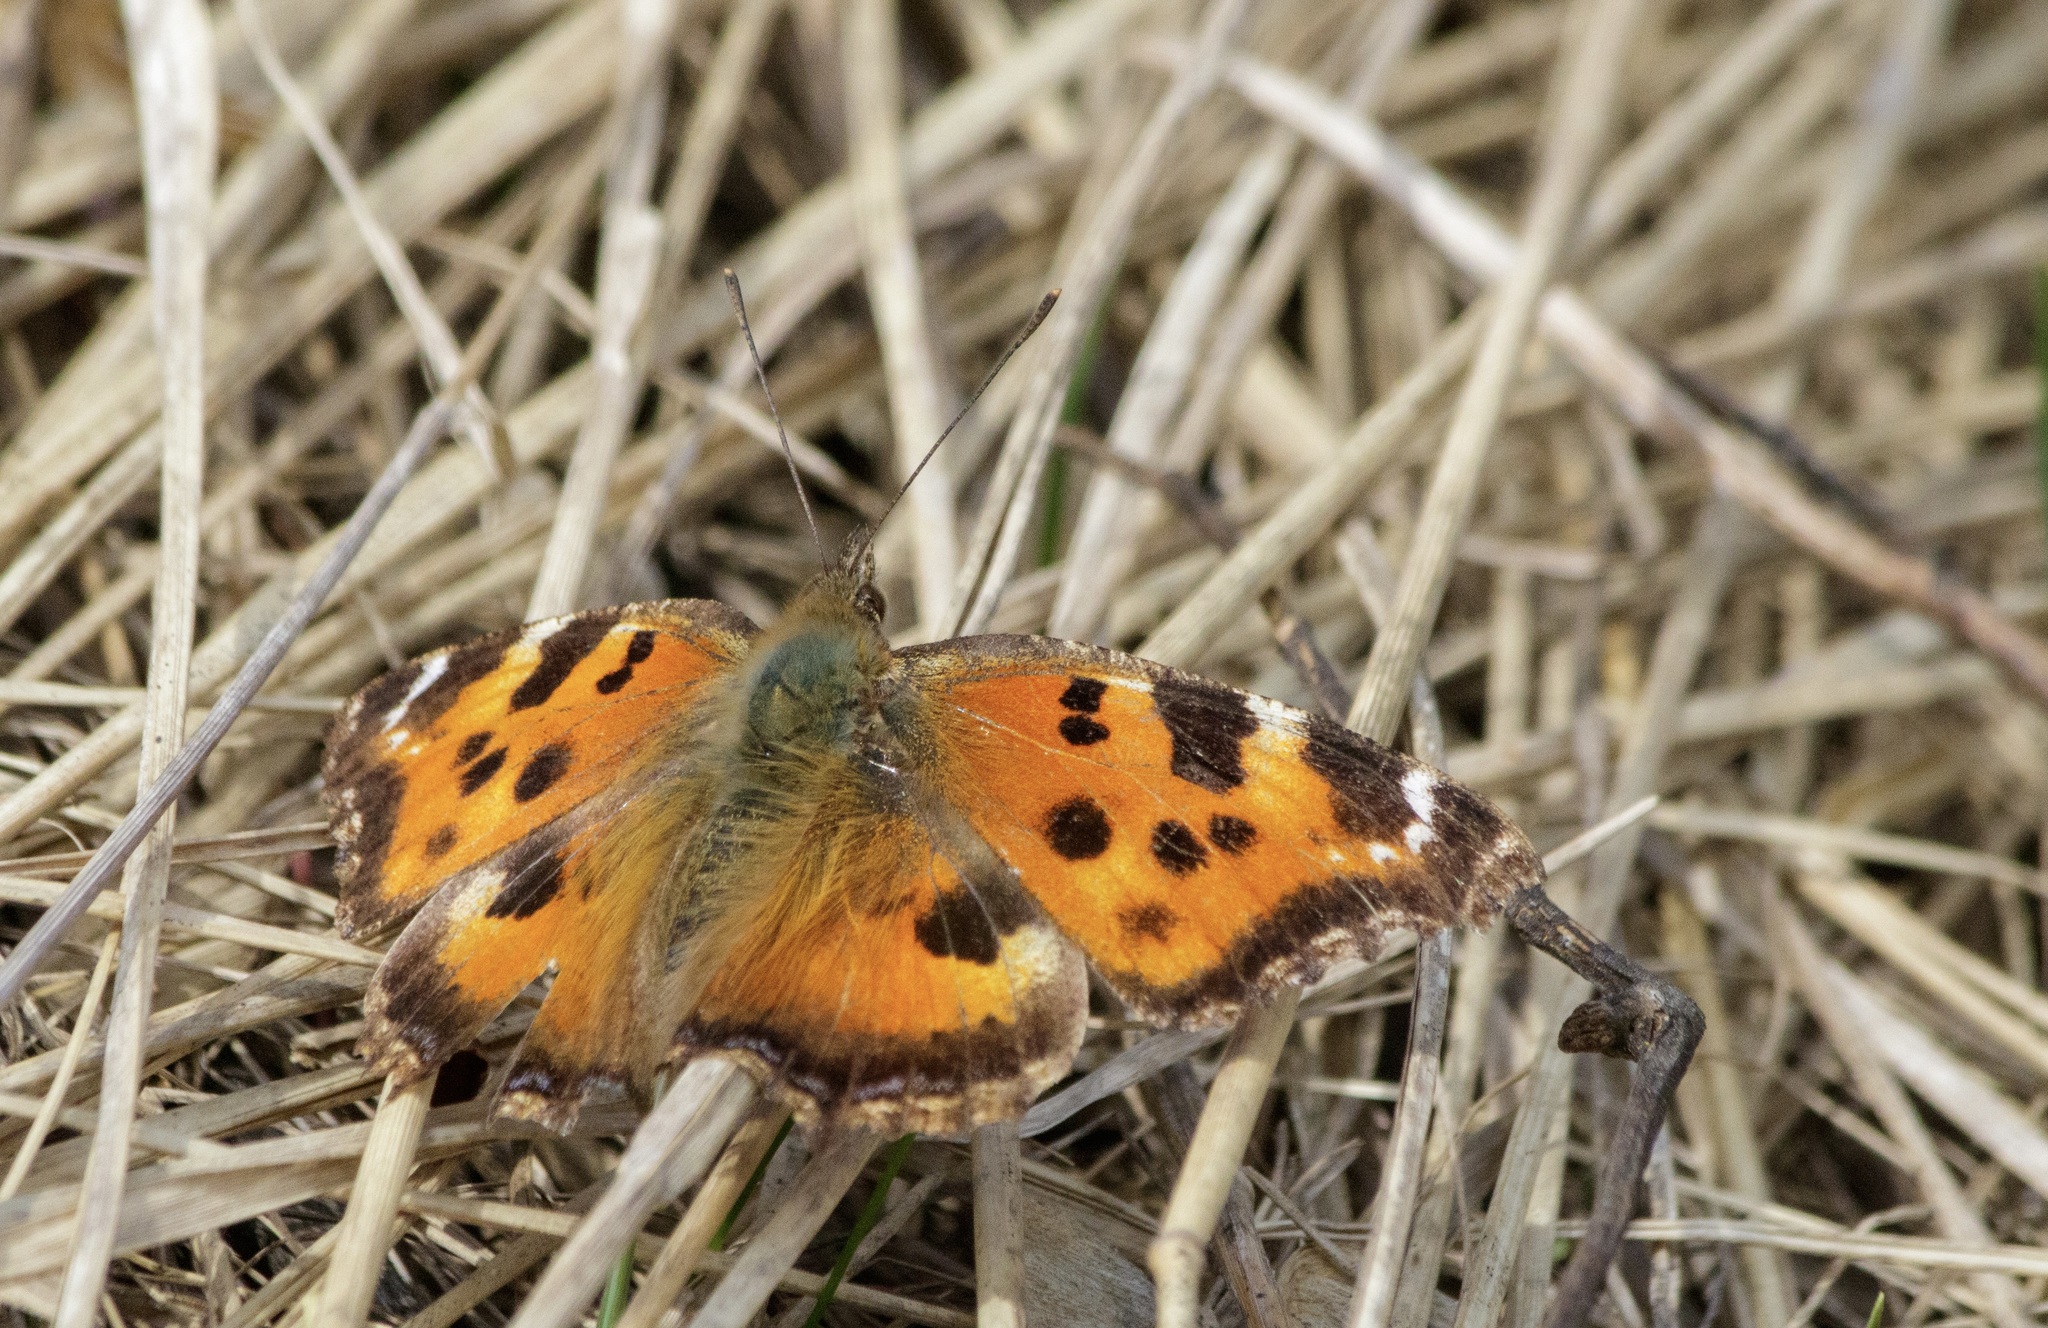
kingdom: Animalia
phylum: Arthropoda
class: Insecta
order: Lepidoptera
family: Nymphalidae
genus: Nymphalis
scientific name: Nymphalis xanthomelas
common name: Scarce tortoiseshell
